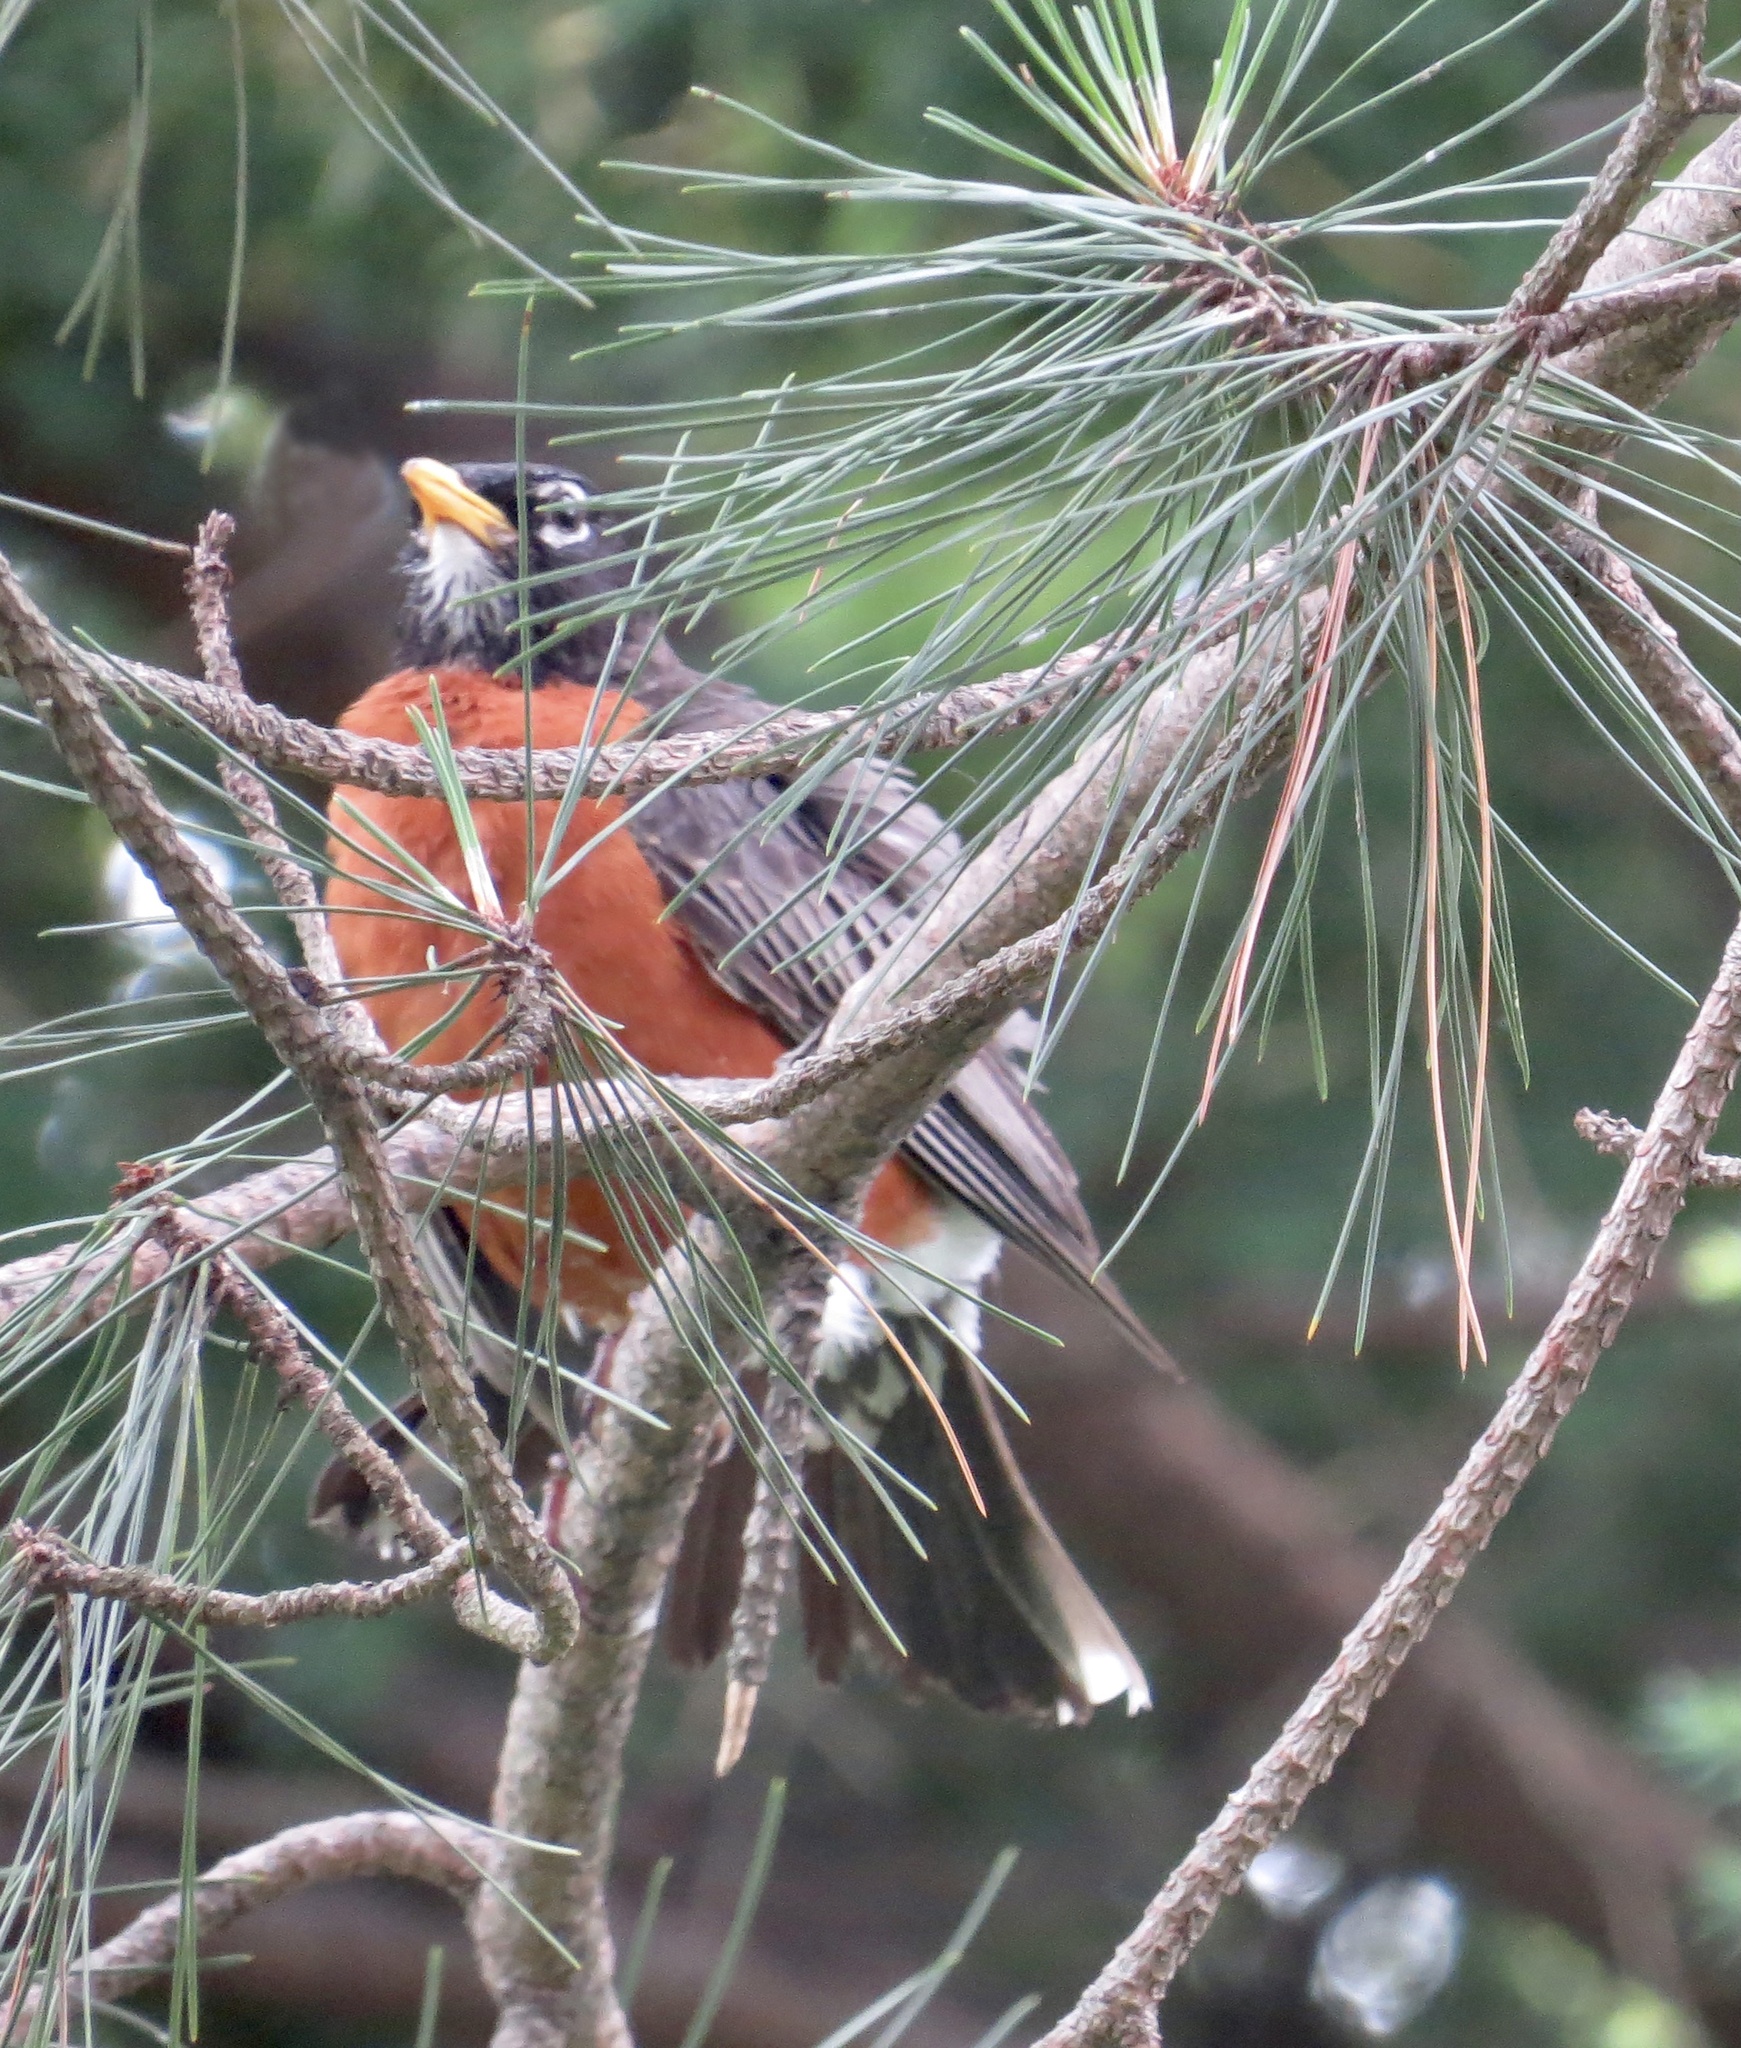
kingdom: Animalia
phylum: Chordata
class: Aves
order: Passeriformes
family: Turdidae
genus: Turdus
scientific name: Turdus migratorius
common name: American robin
